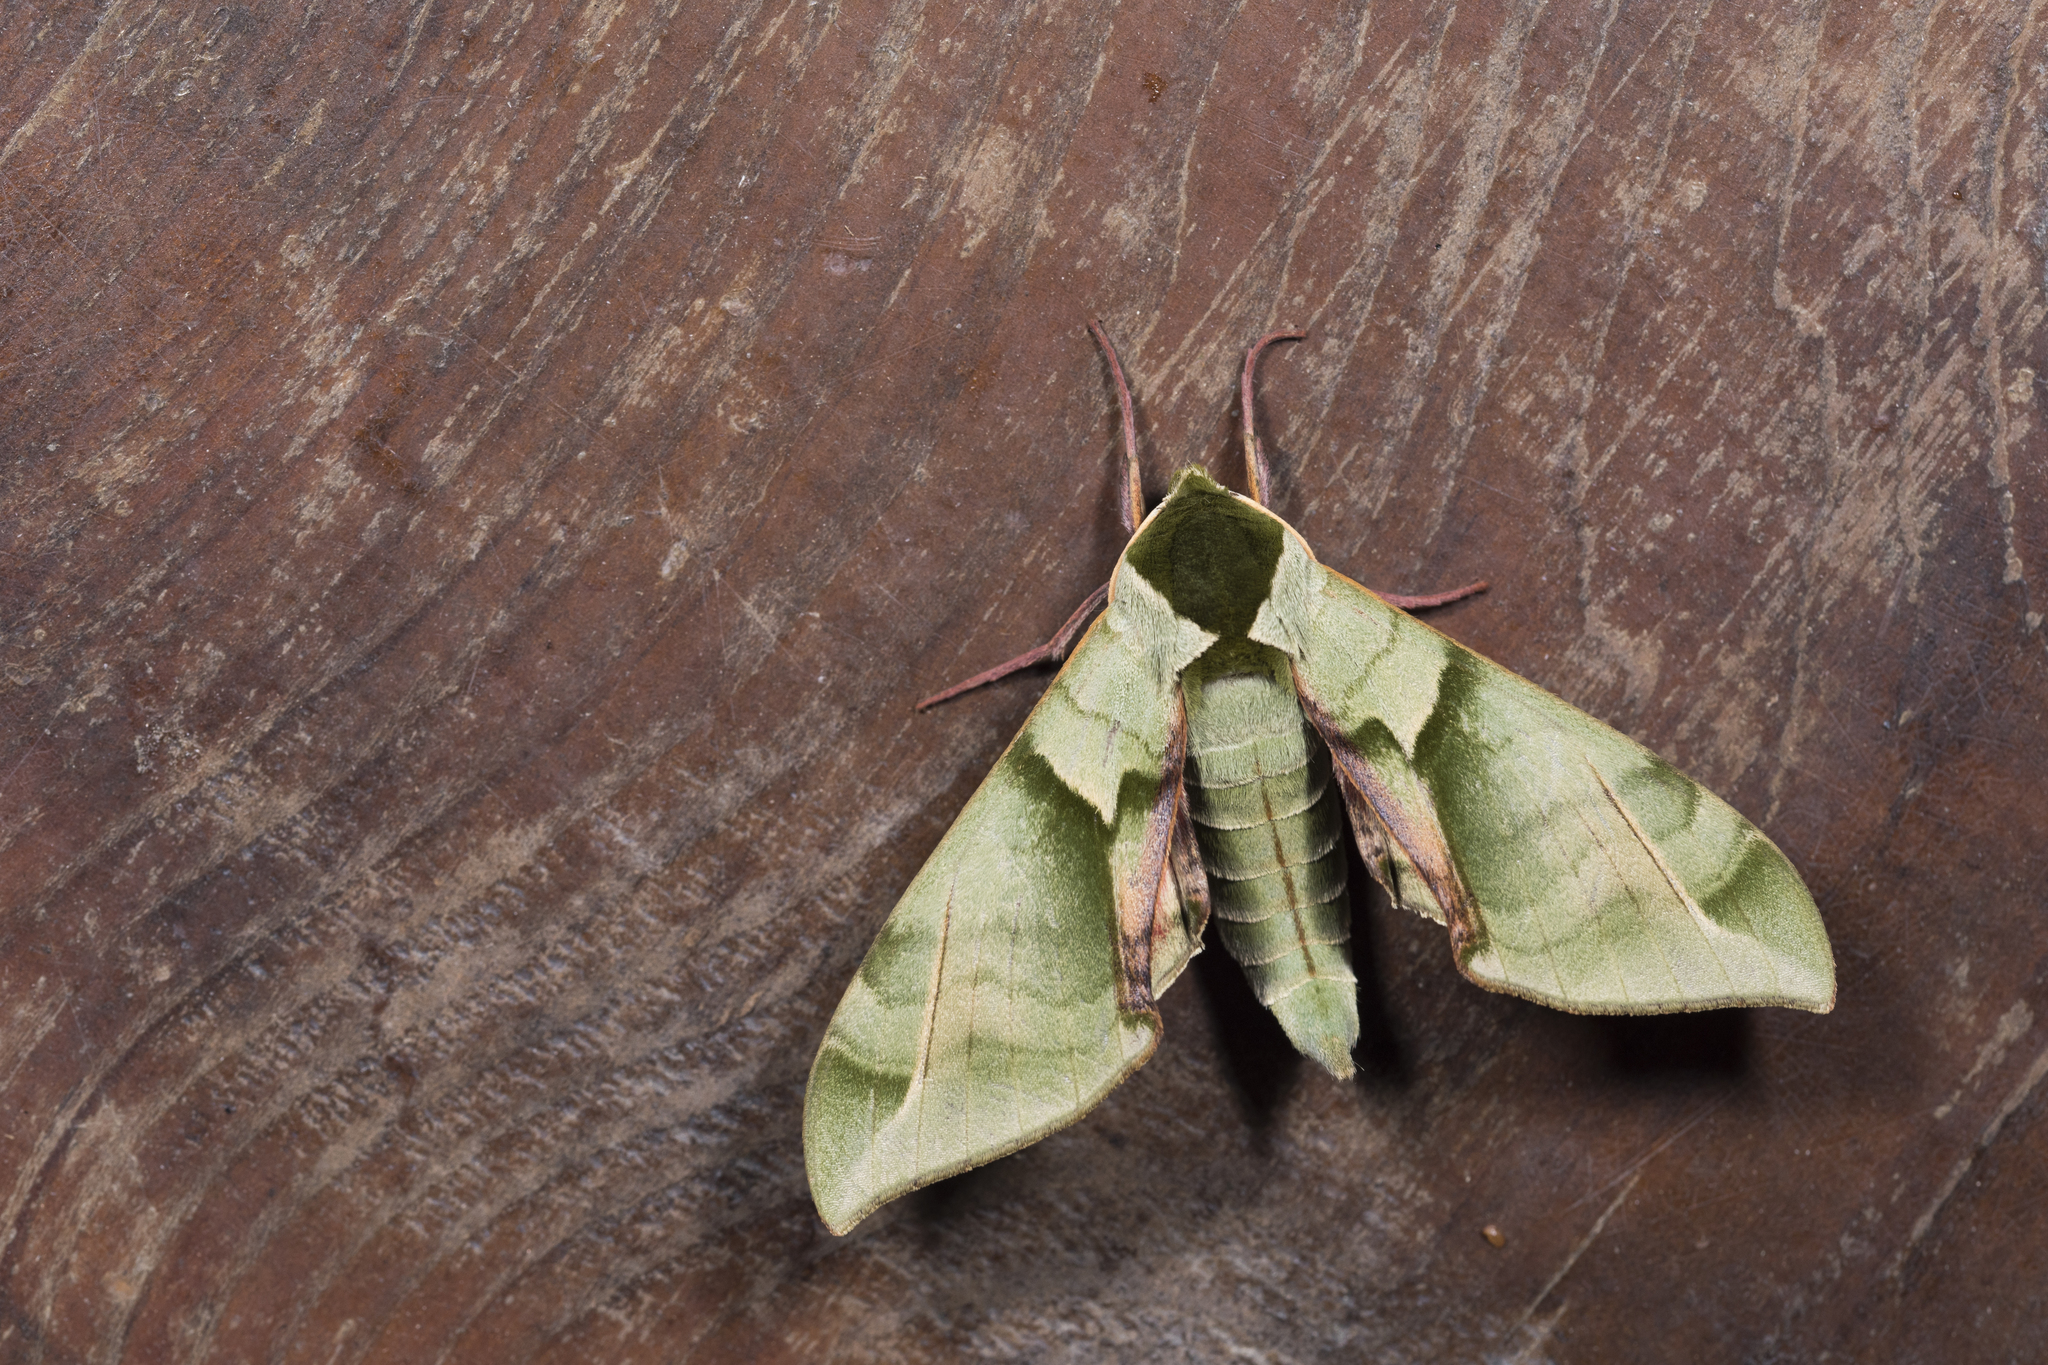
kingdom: Animalia
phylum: Arthropoda
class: Insecta
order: Lepidoptera
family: Sphingidae
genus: Callambulyx
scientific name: Callambulyx tatarinovii
